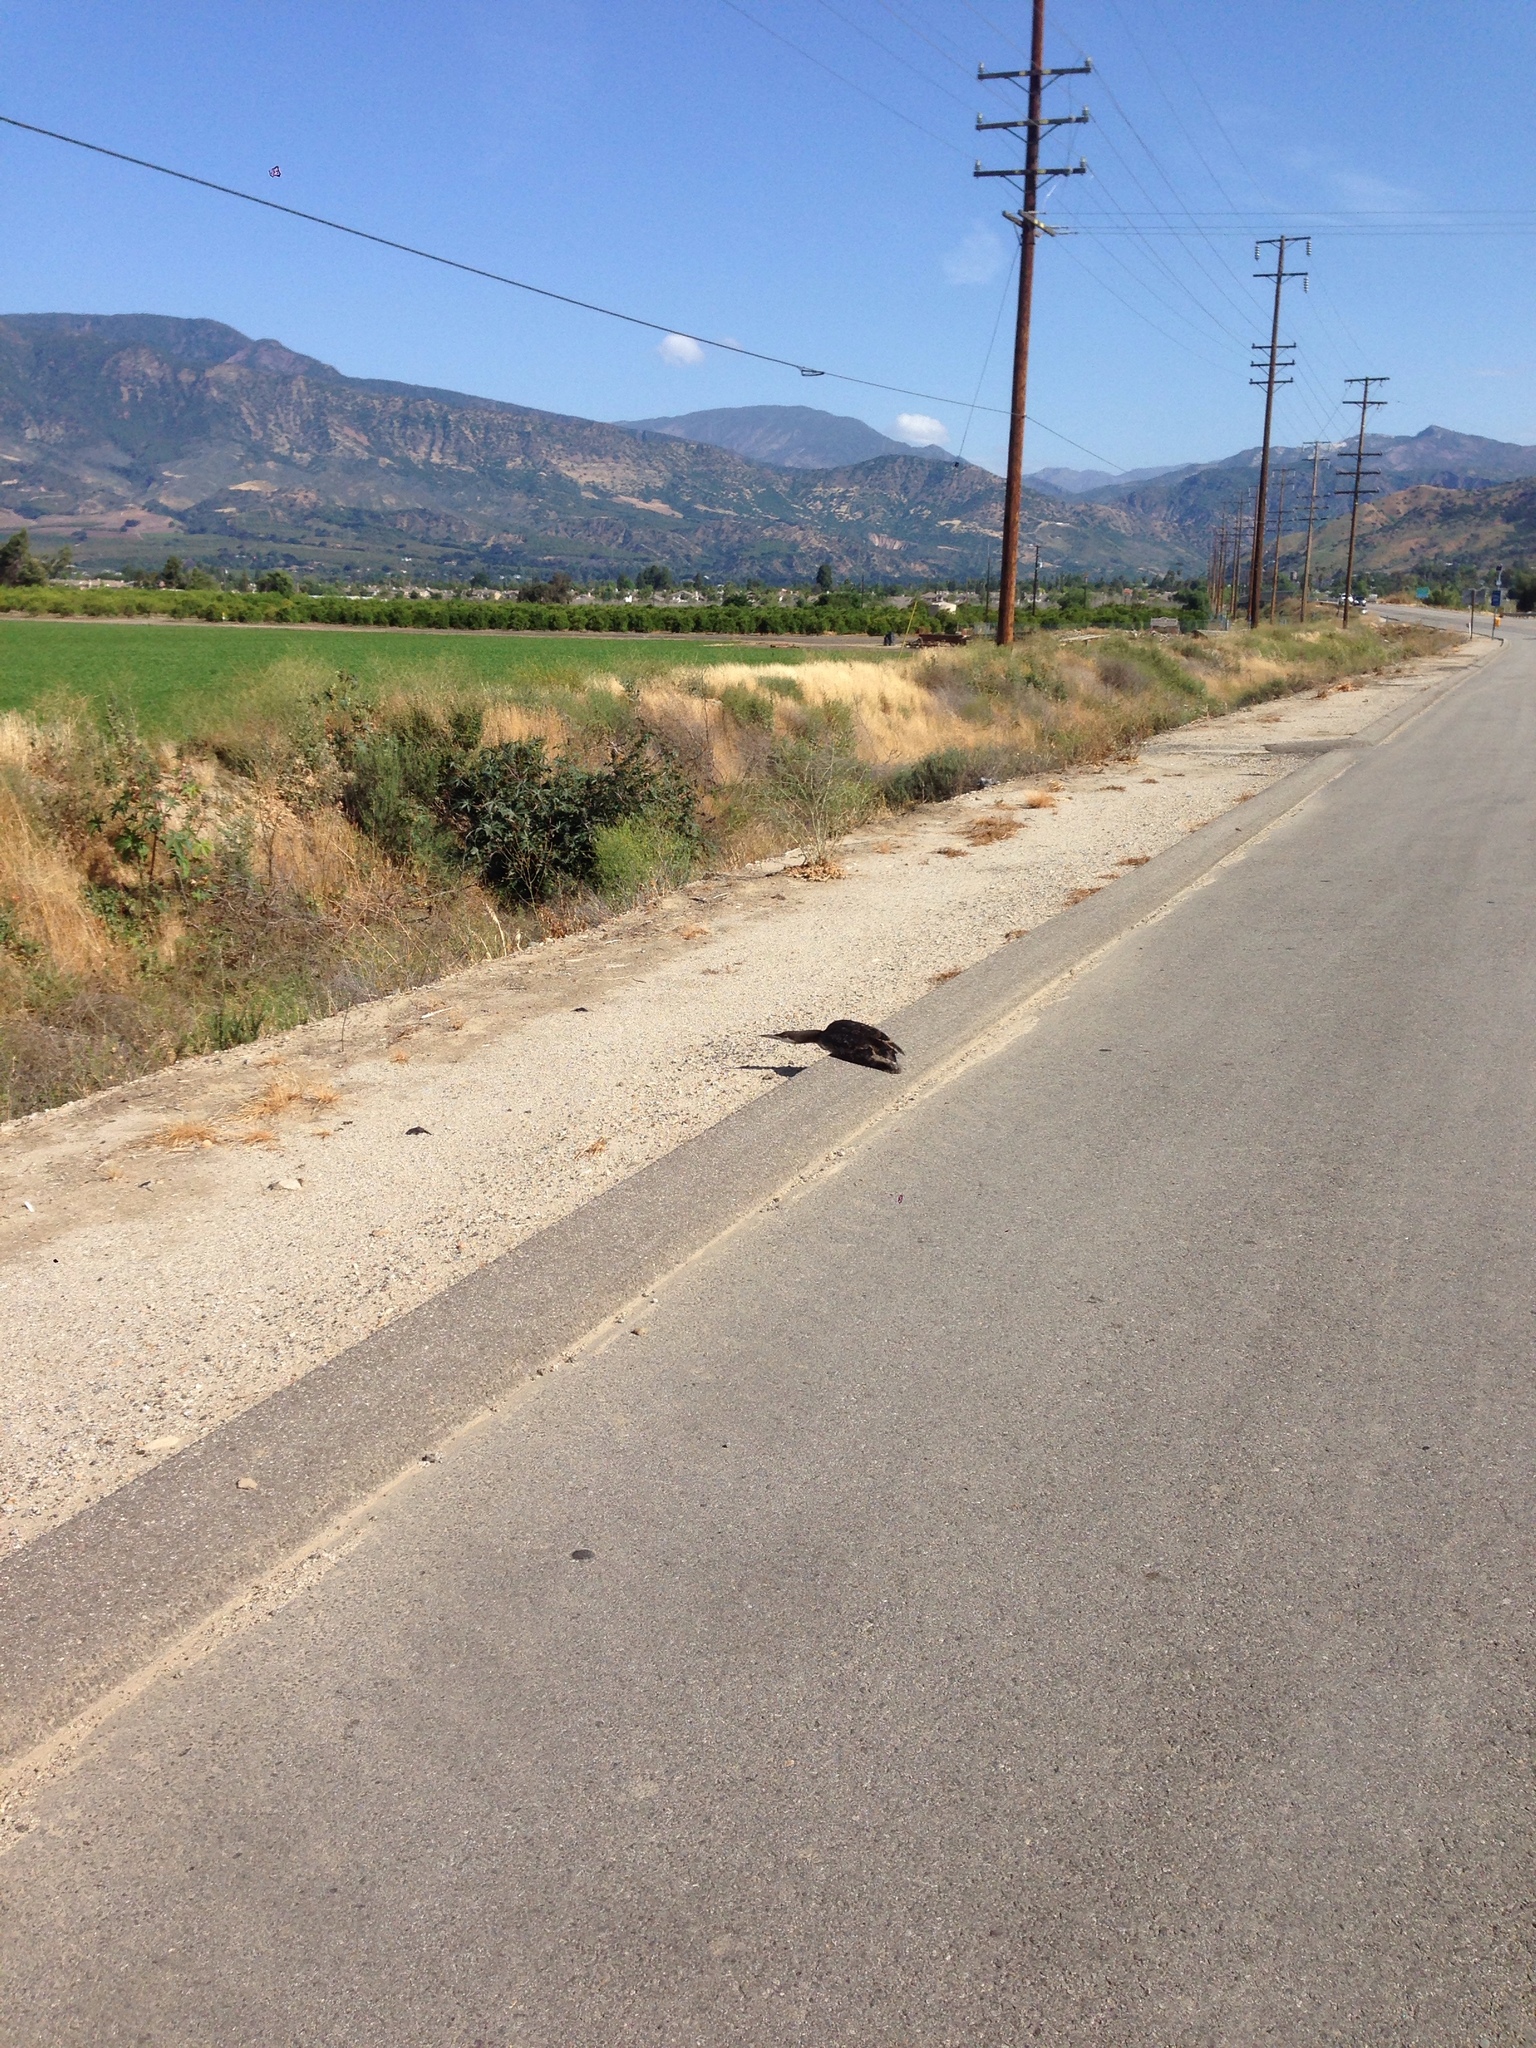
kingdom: Animalia
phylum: Chordata
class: Aves
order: Gaviiformes
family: Gaviidae
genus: Gavia
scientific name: Gavia pacifica
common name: Pacific loon
